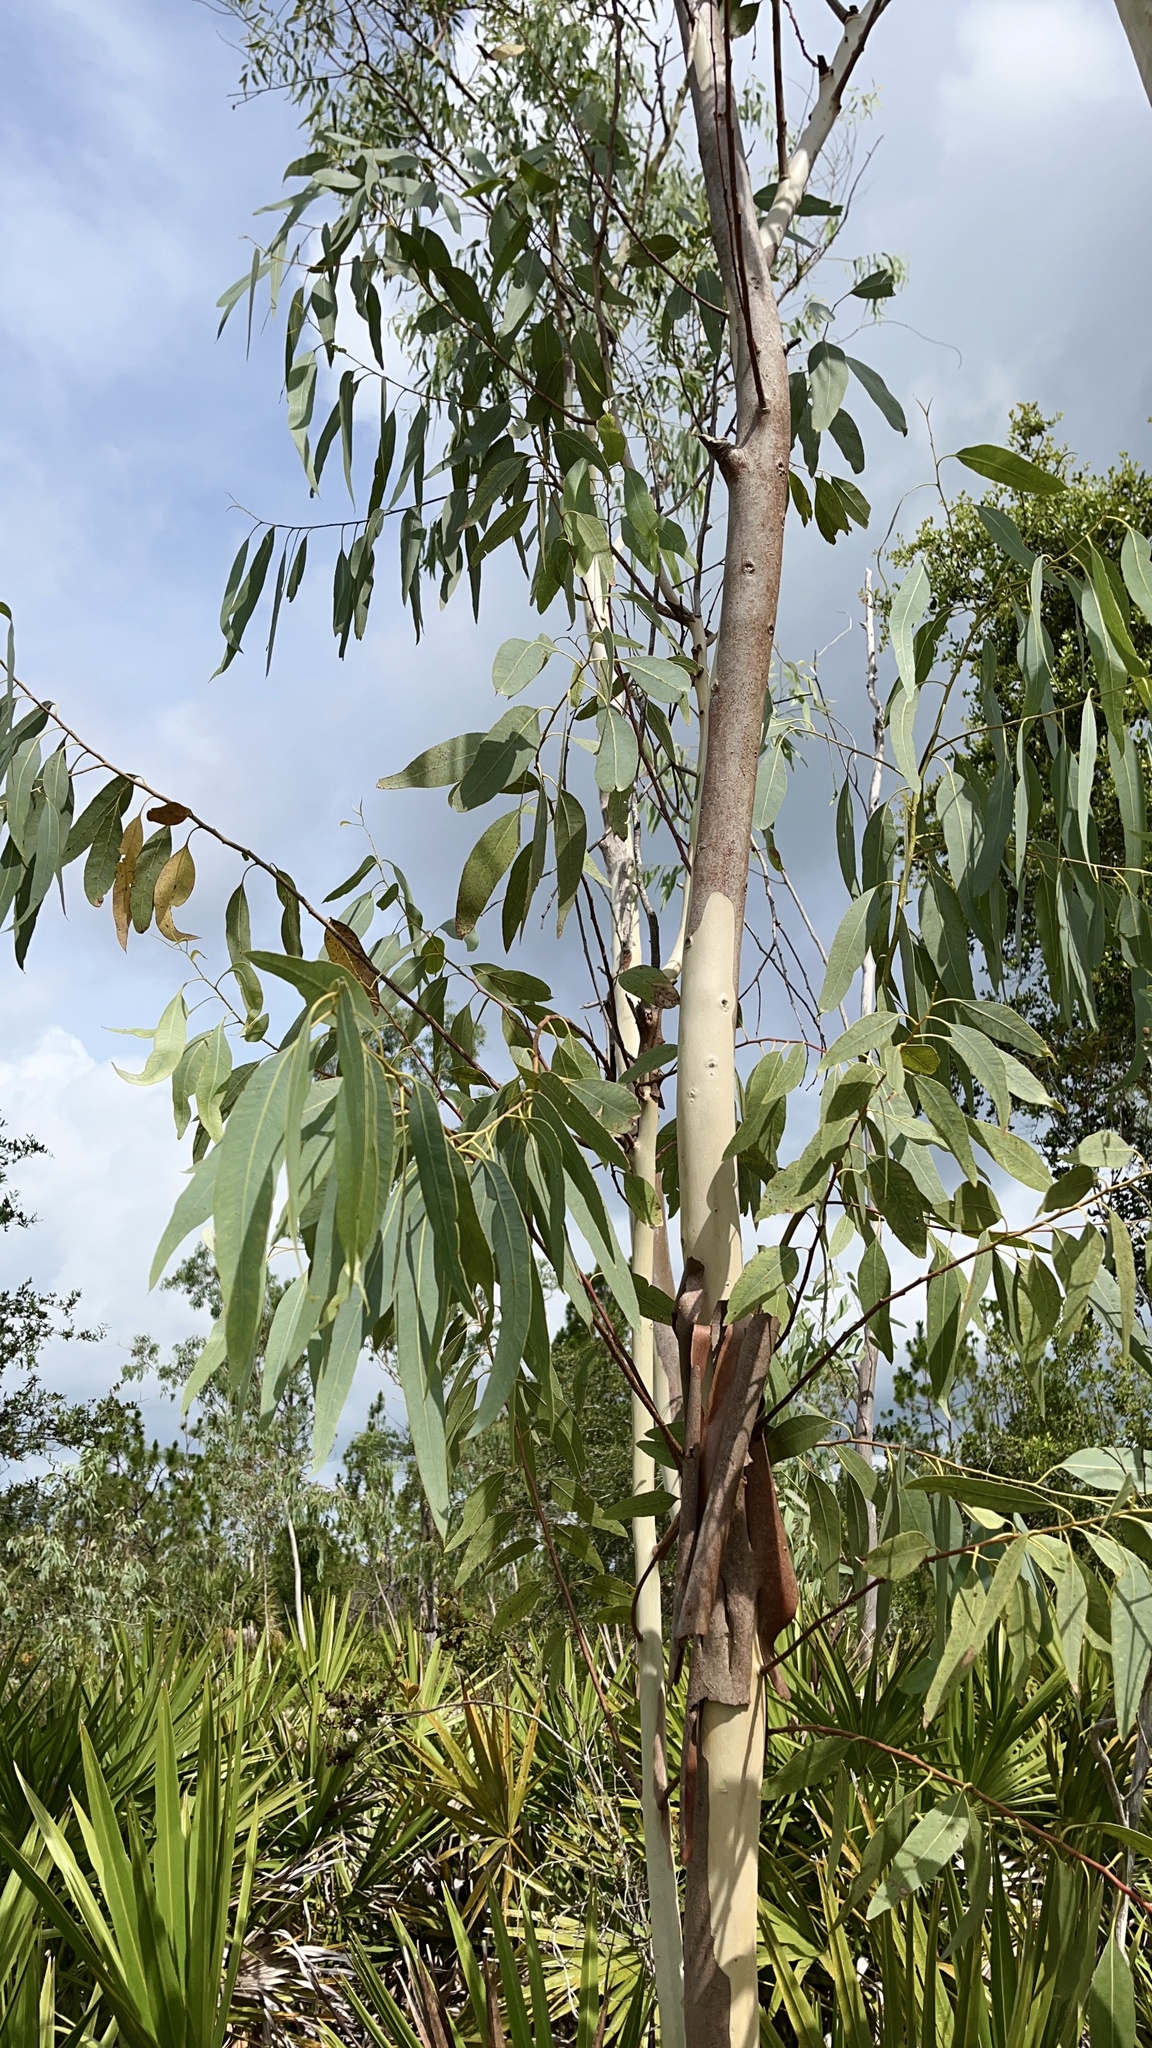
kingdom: Plantae
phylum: Tracheophyta
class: Magnoliopsida
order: Myrtales
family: Myrtaceae
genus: Eucalyptus
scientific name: Eucalyptus camaldulensis
